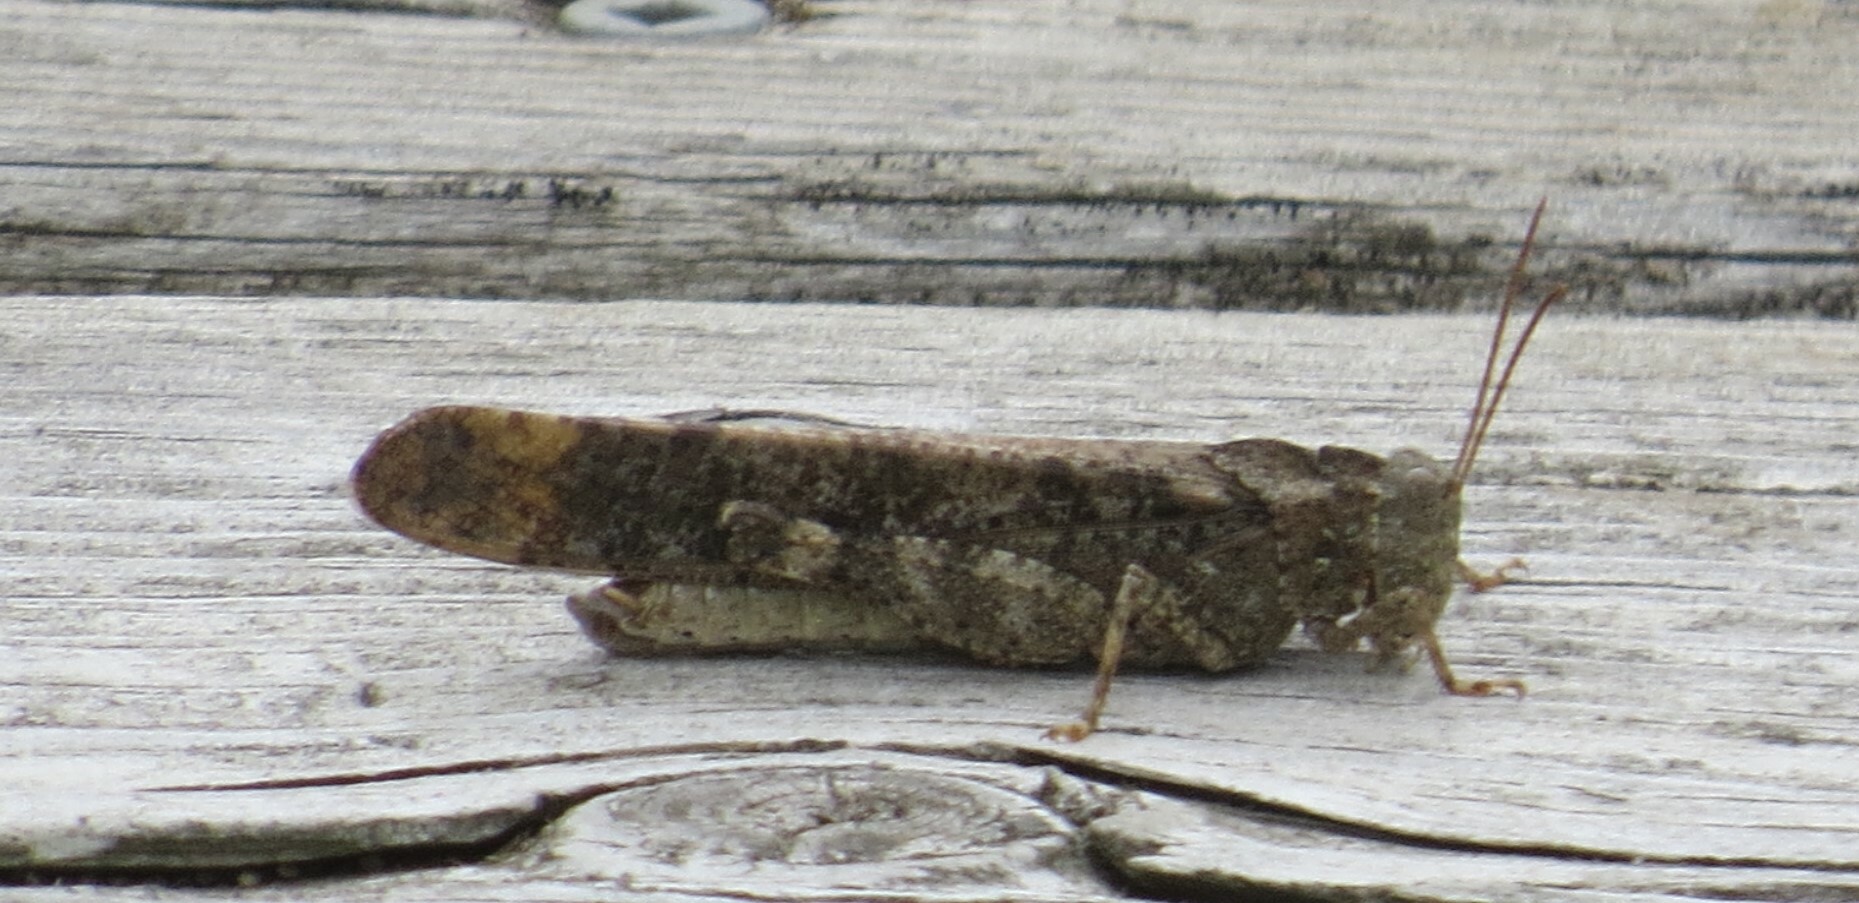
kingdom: Animalia
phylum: Arthropoda
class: Insecta
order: Orthoptera
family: Acrididae
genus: Dissosteira
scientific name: Dissosteira carolina
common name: Carolina grasshopper
